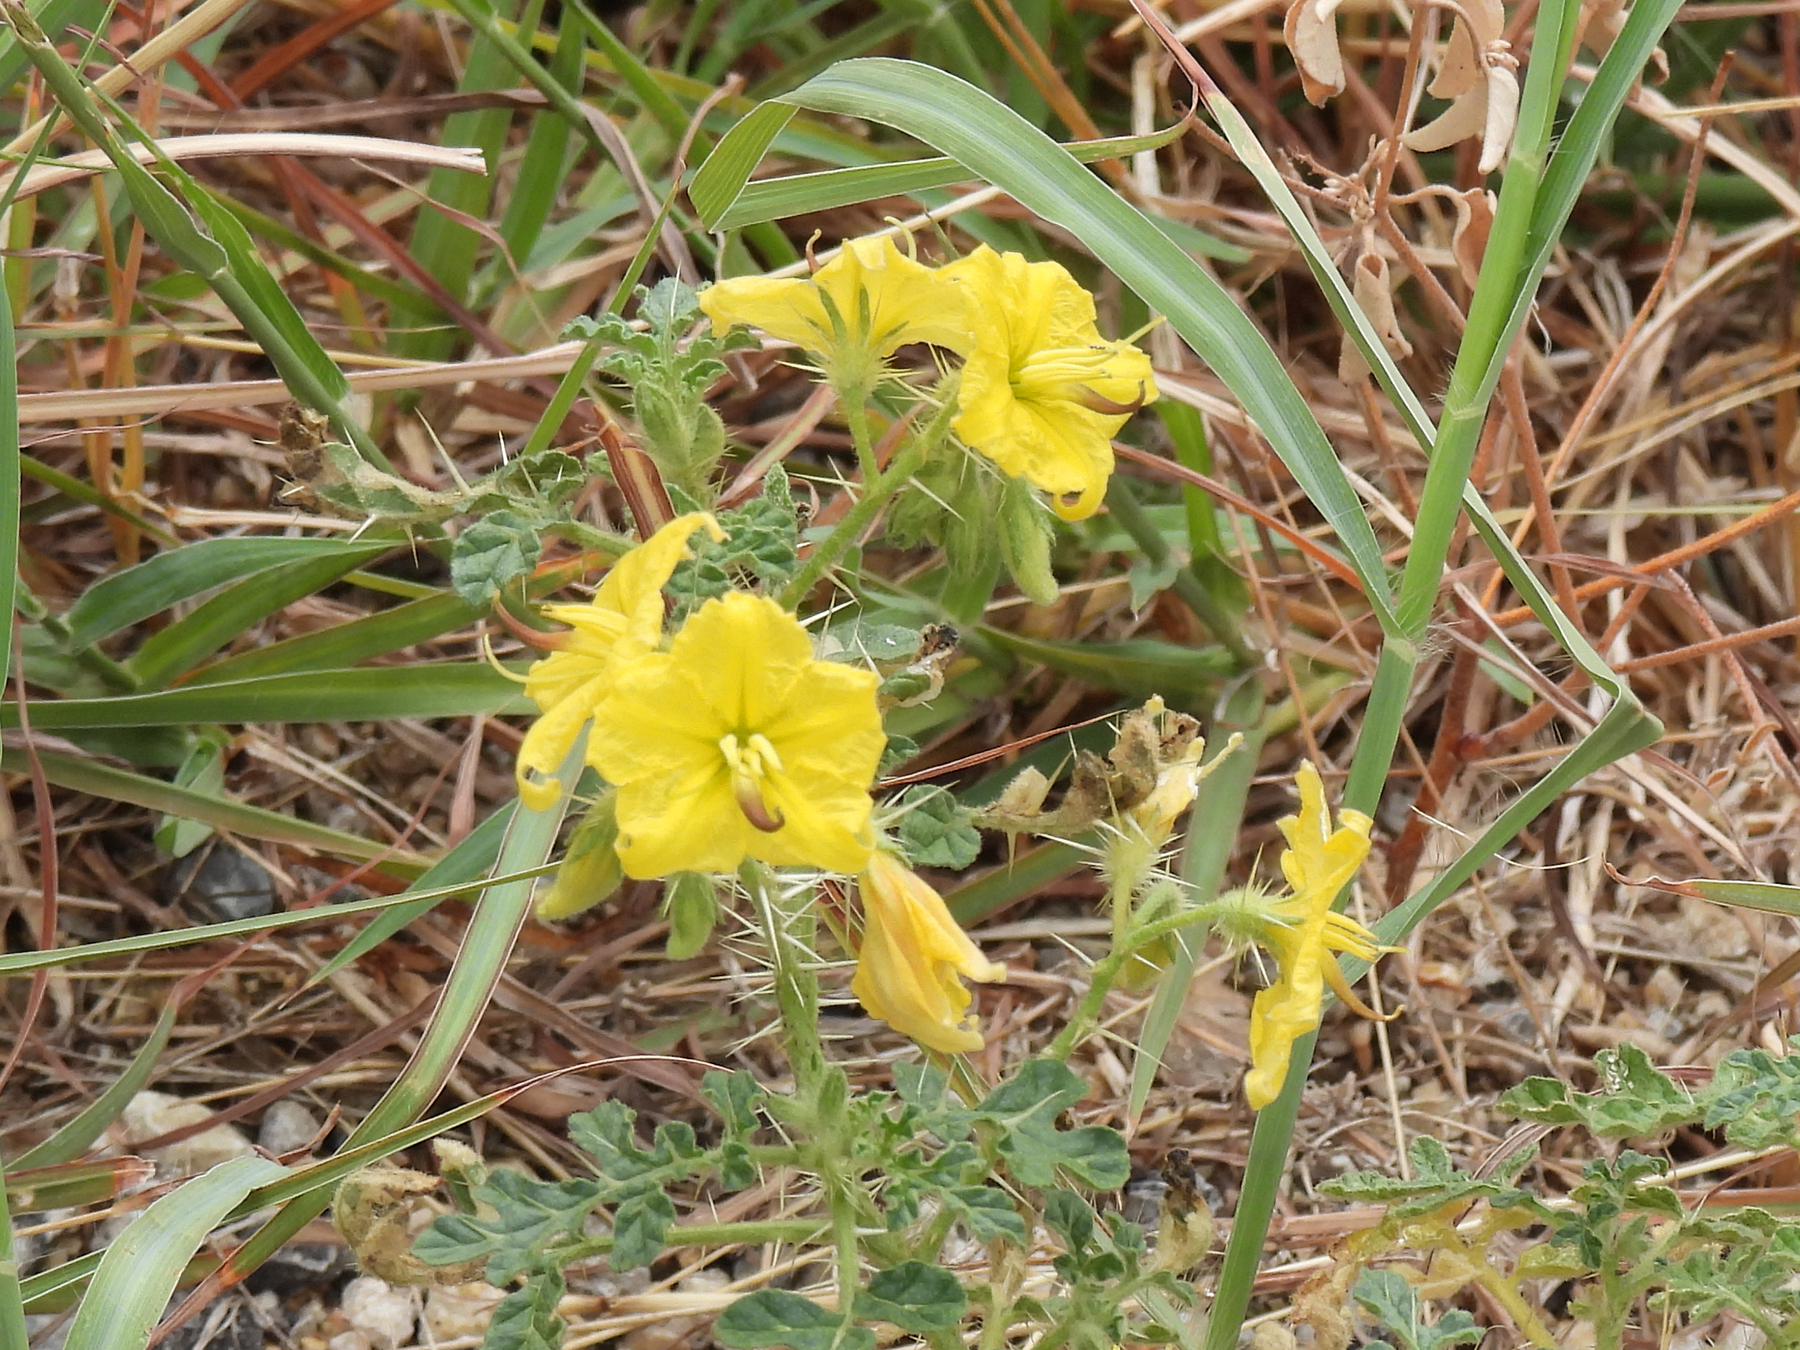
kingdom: Plantae
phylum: Tracheophyta
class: Magnoliopsida
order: Solanales
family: Solanaceae
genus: Solanum
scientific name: Solanum angustifolium
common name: Buffalobur nightshade
